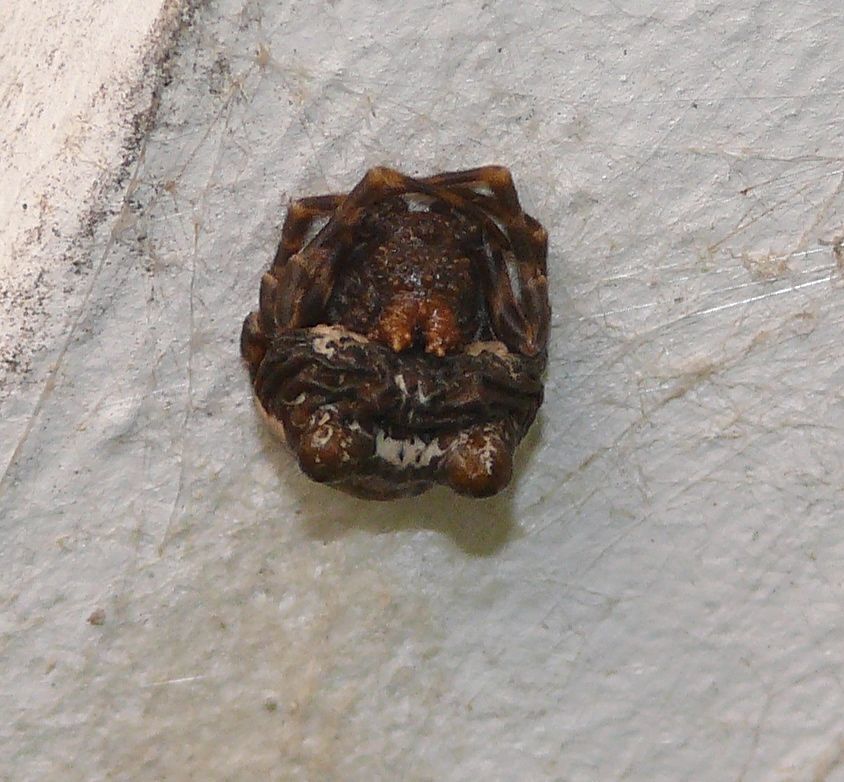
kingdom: Animalia
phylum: Arthropoda
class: Arachnida
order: Araneae
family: Araneidae
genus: Mastophora
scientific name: Mastophora cornigera
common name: Orb weavers
